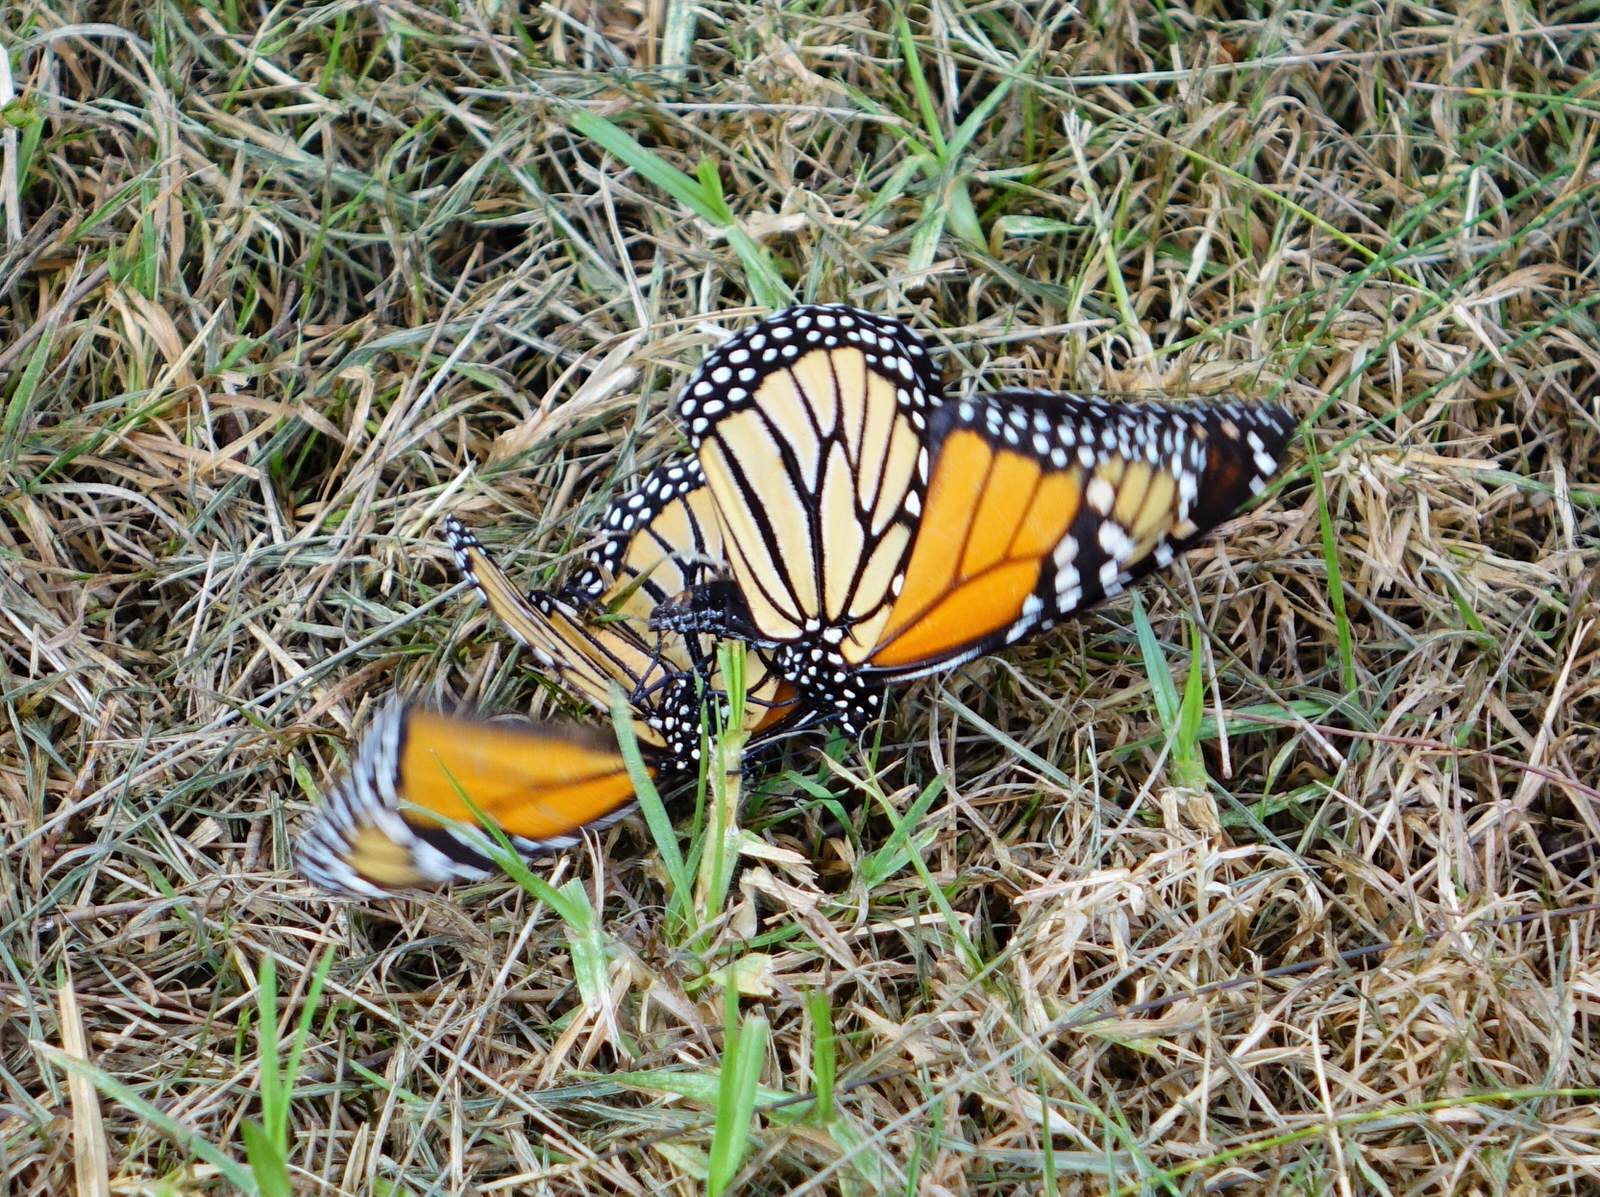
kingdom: Animalia
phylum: Arthropoda
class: Insecta
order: Lepidoptera
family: Nymphalidae
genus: Danaus
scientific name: Danaus plexippus
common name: Monarch
